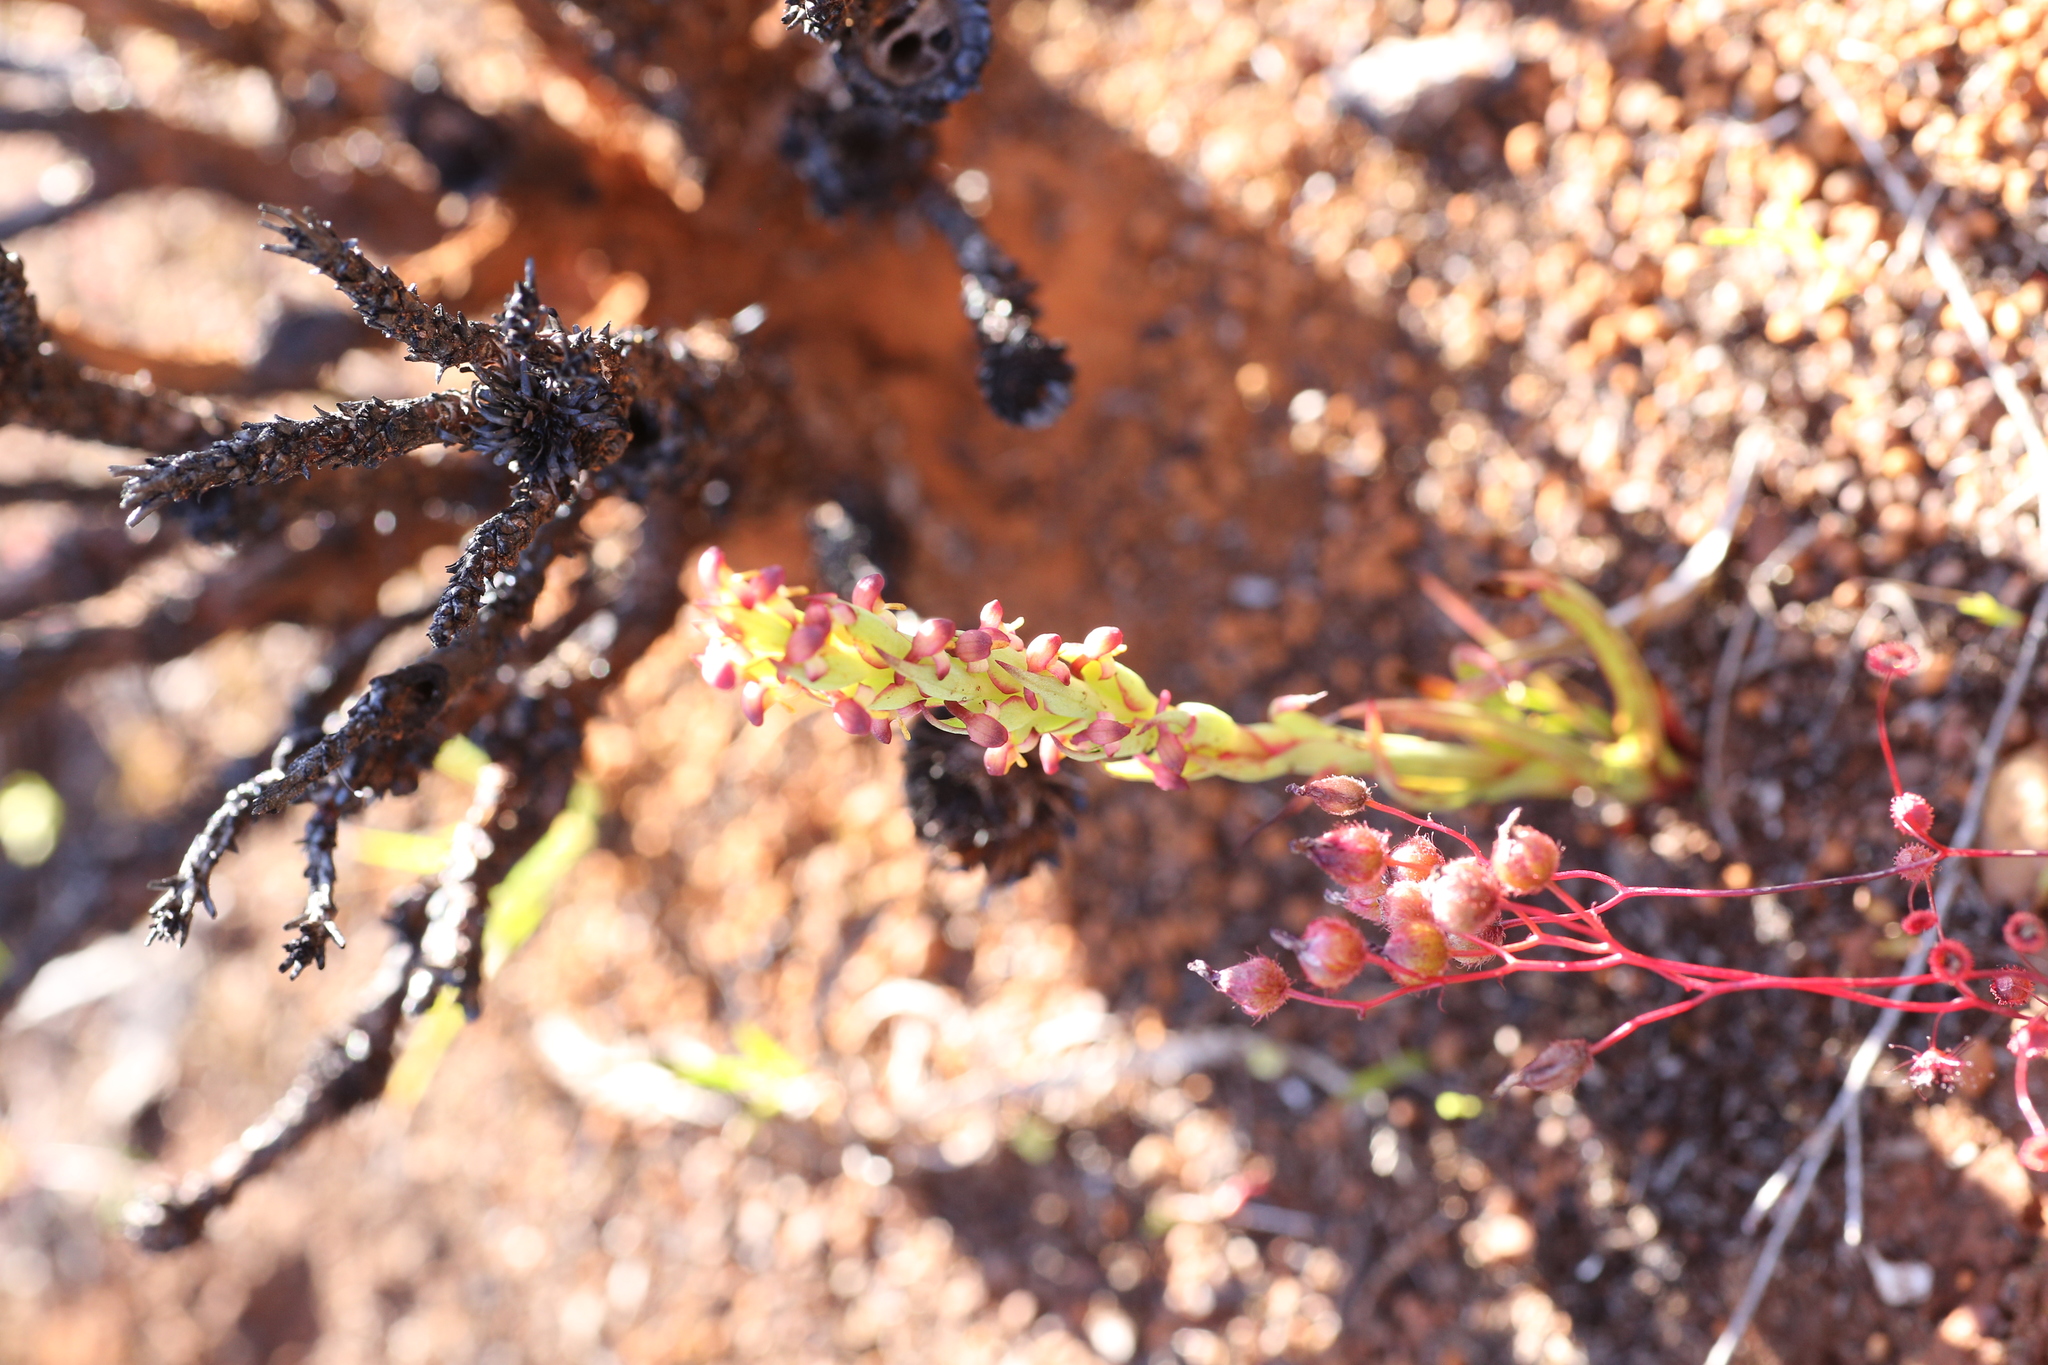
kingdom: Plantae
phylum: Tracheophyta
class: Liliopsida
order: Asparagales
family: Orchidaceae
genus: Disa
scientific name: Disa bracteata
